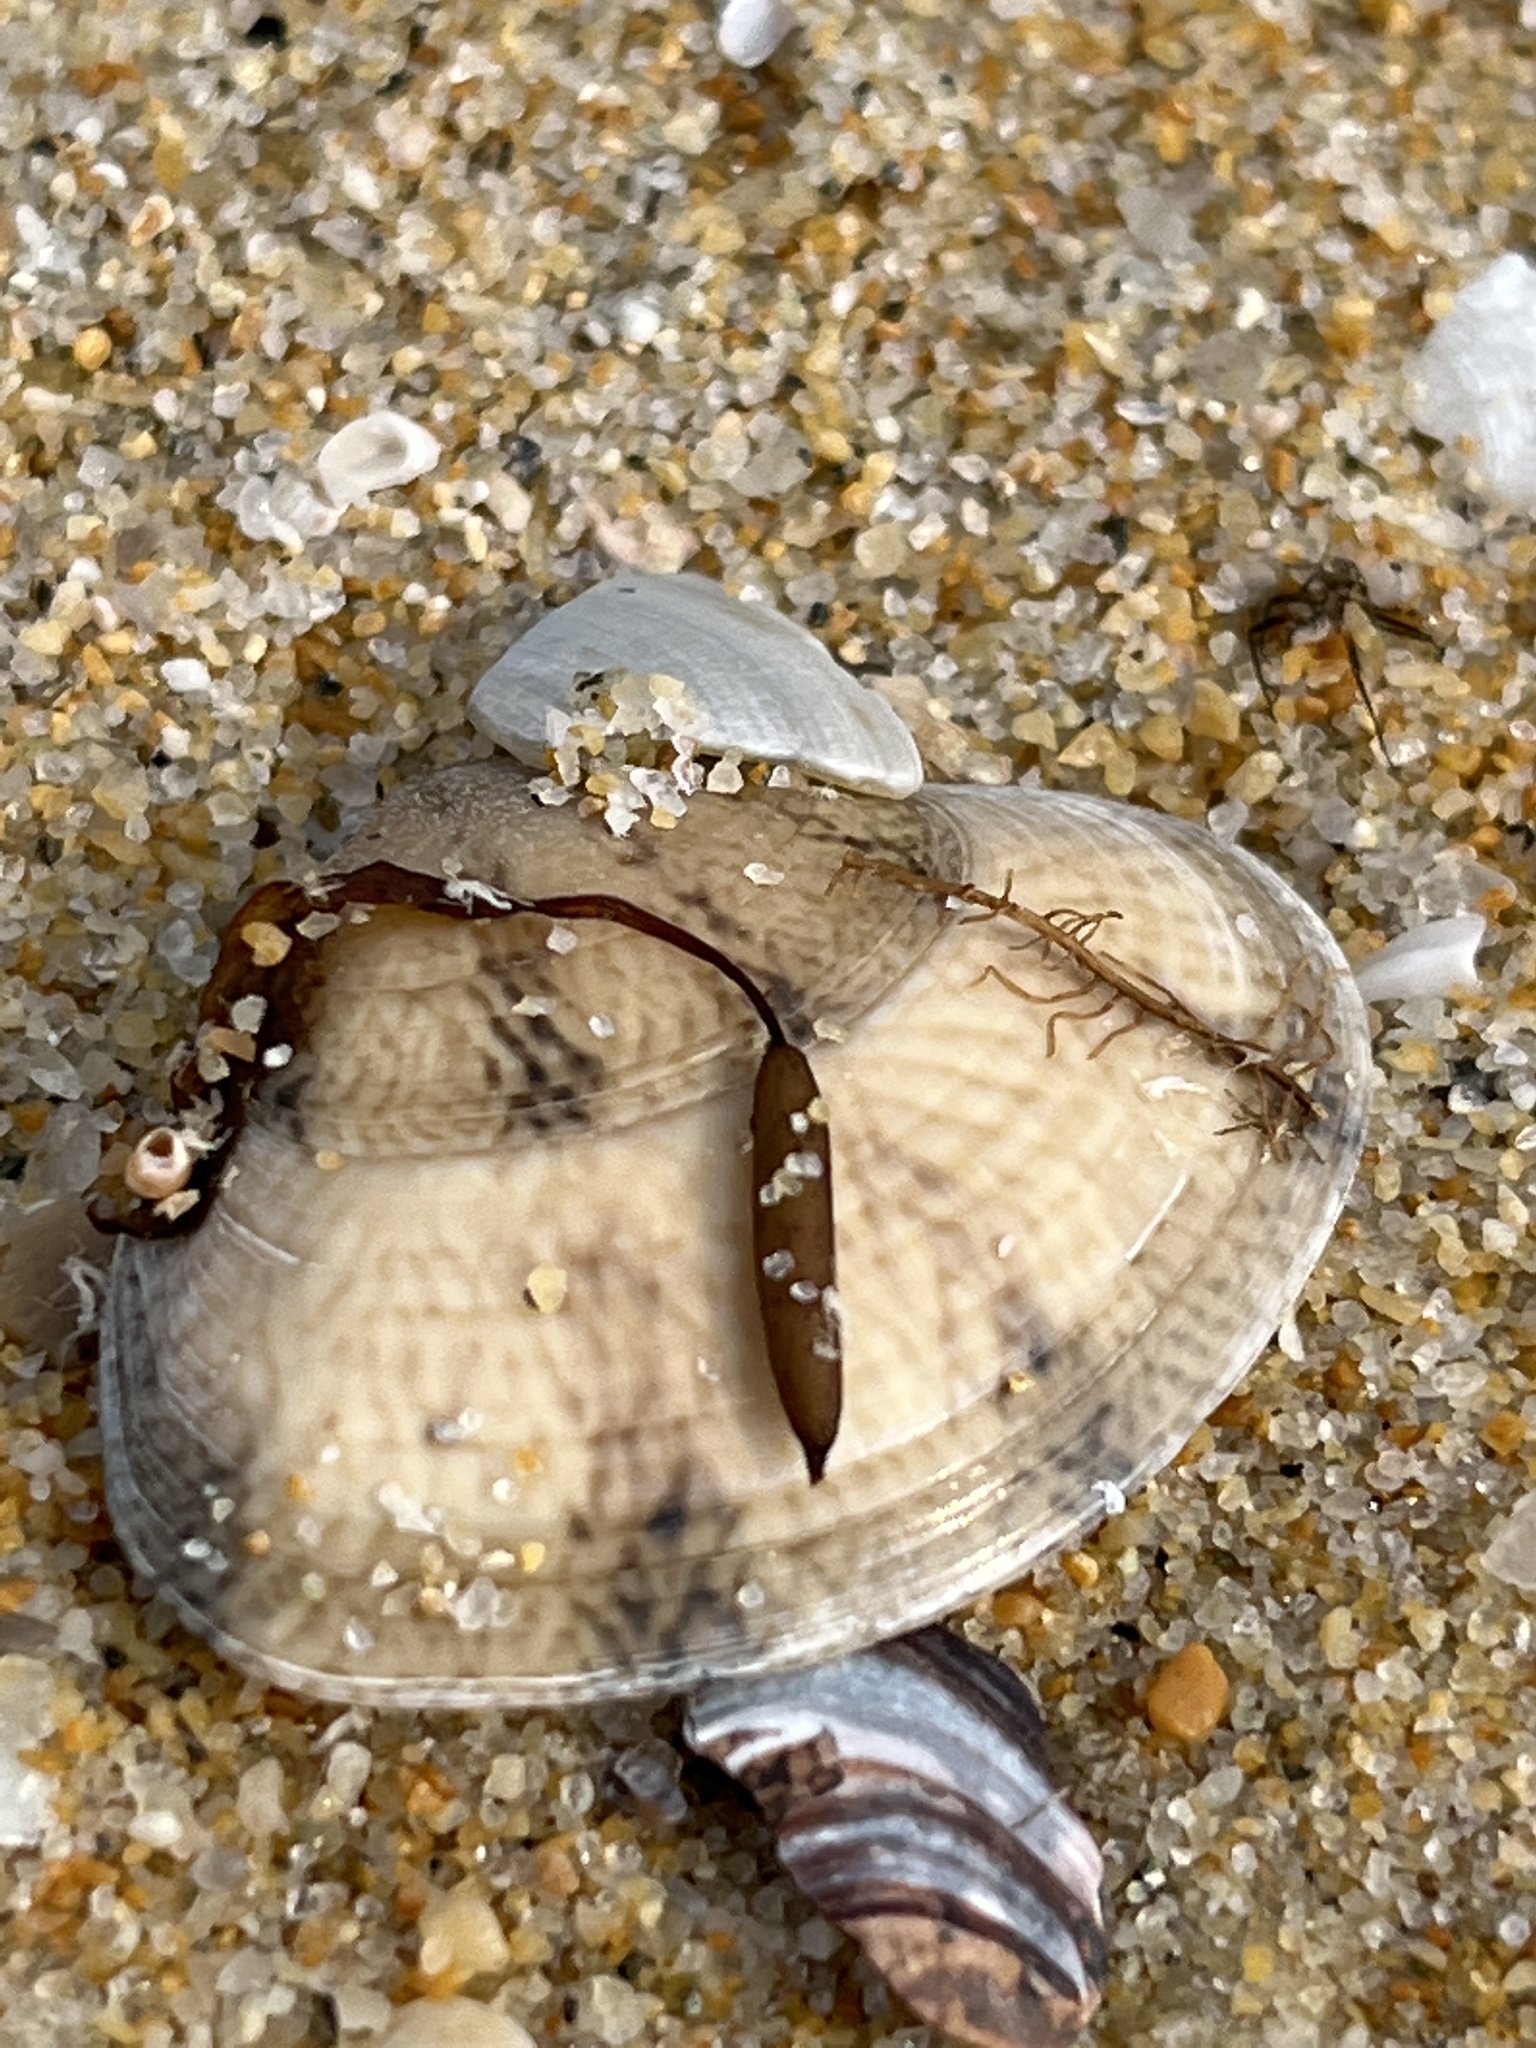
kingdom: Animalia
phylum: Mollusca
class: Bivalvia
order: Venerida
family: Veneridae
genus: Macridiscus
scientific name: Macridiscus aequilatera
